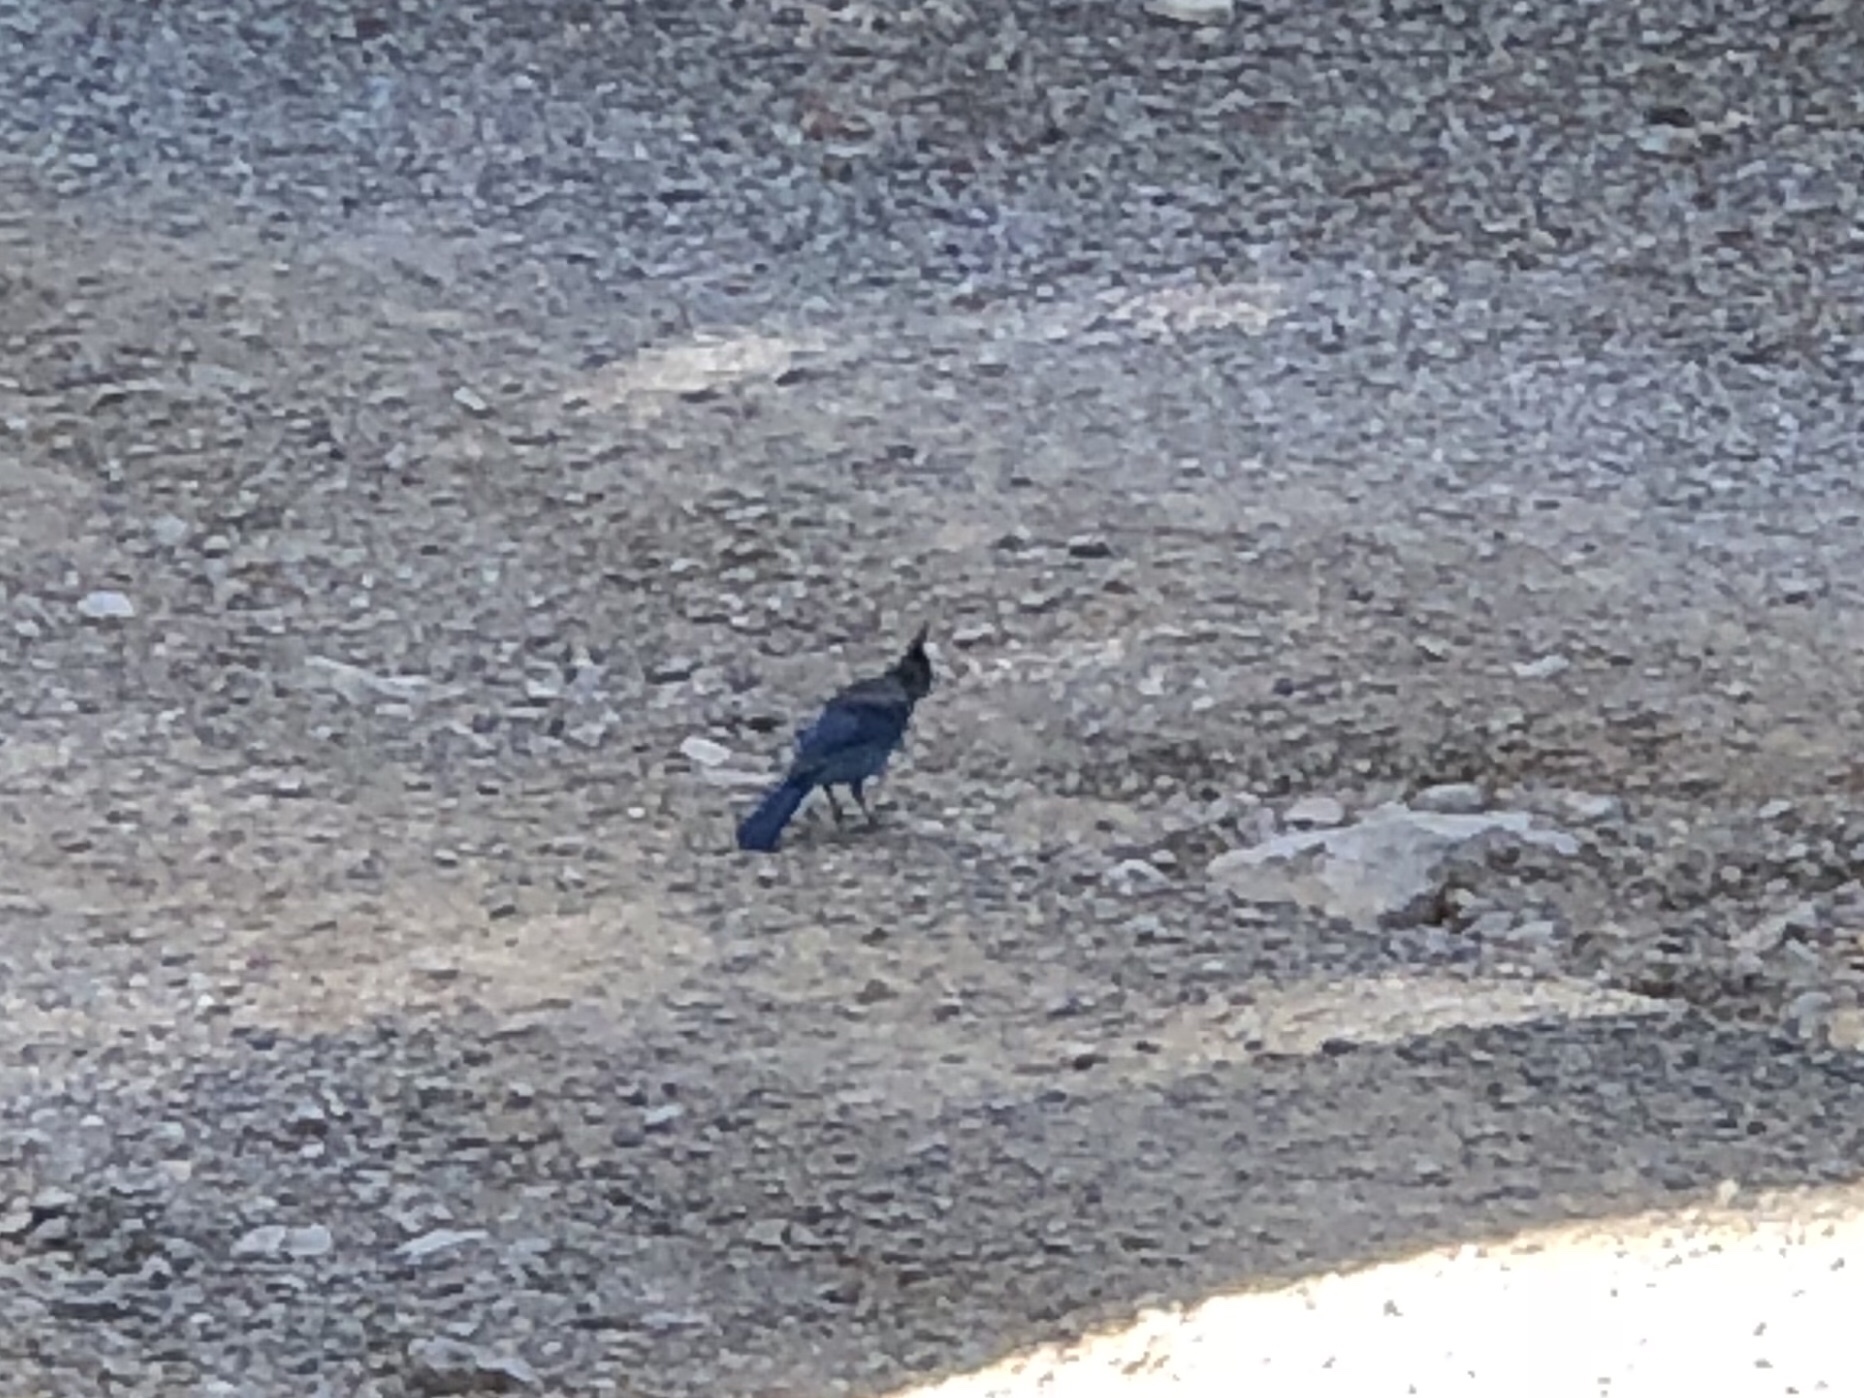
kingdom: Animalia
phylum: Chordata
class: Aves
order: Passeriformes
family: Corvidae
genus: Cyanocitta
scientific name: Cyanocitta stelleri
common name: Steller's jay
